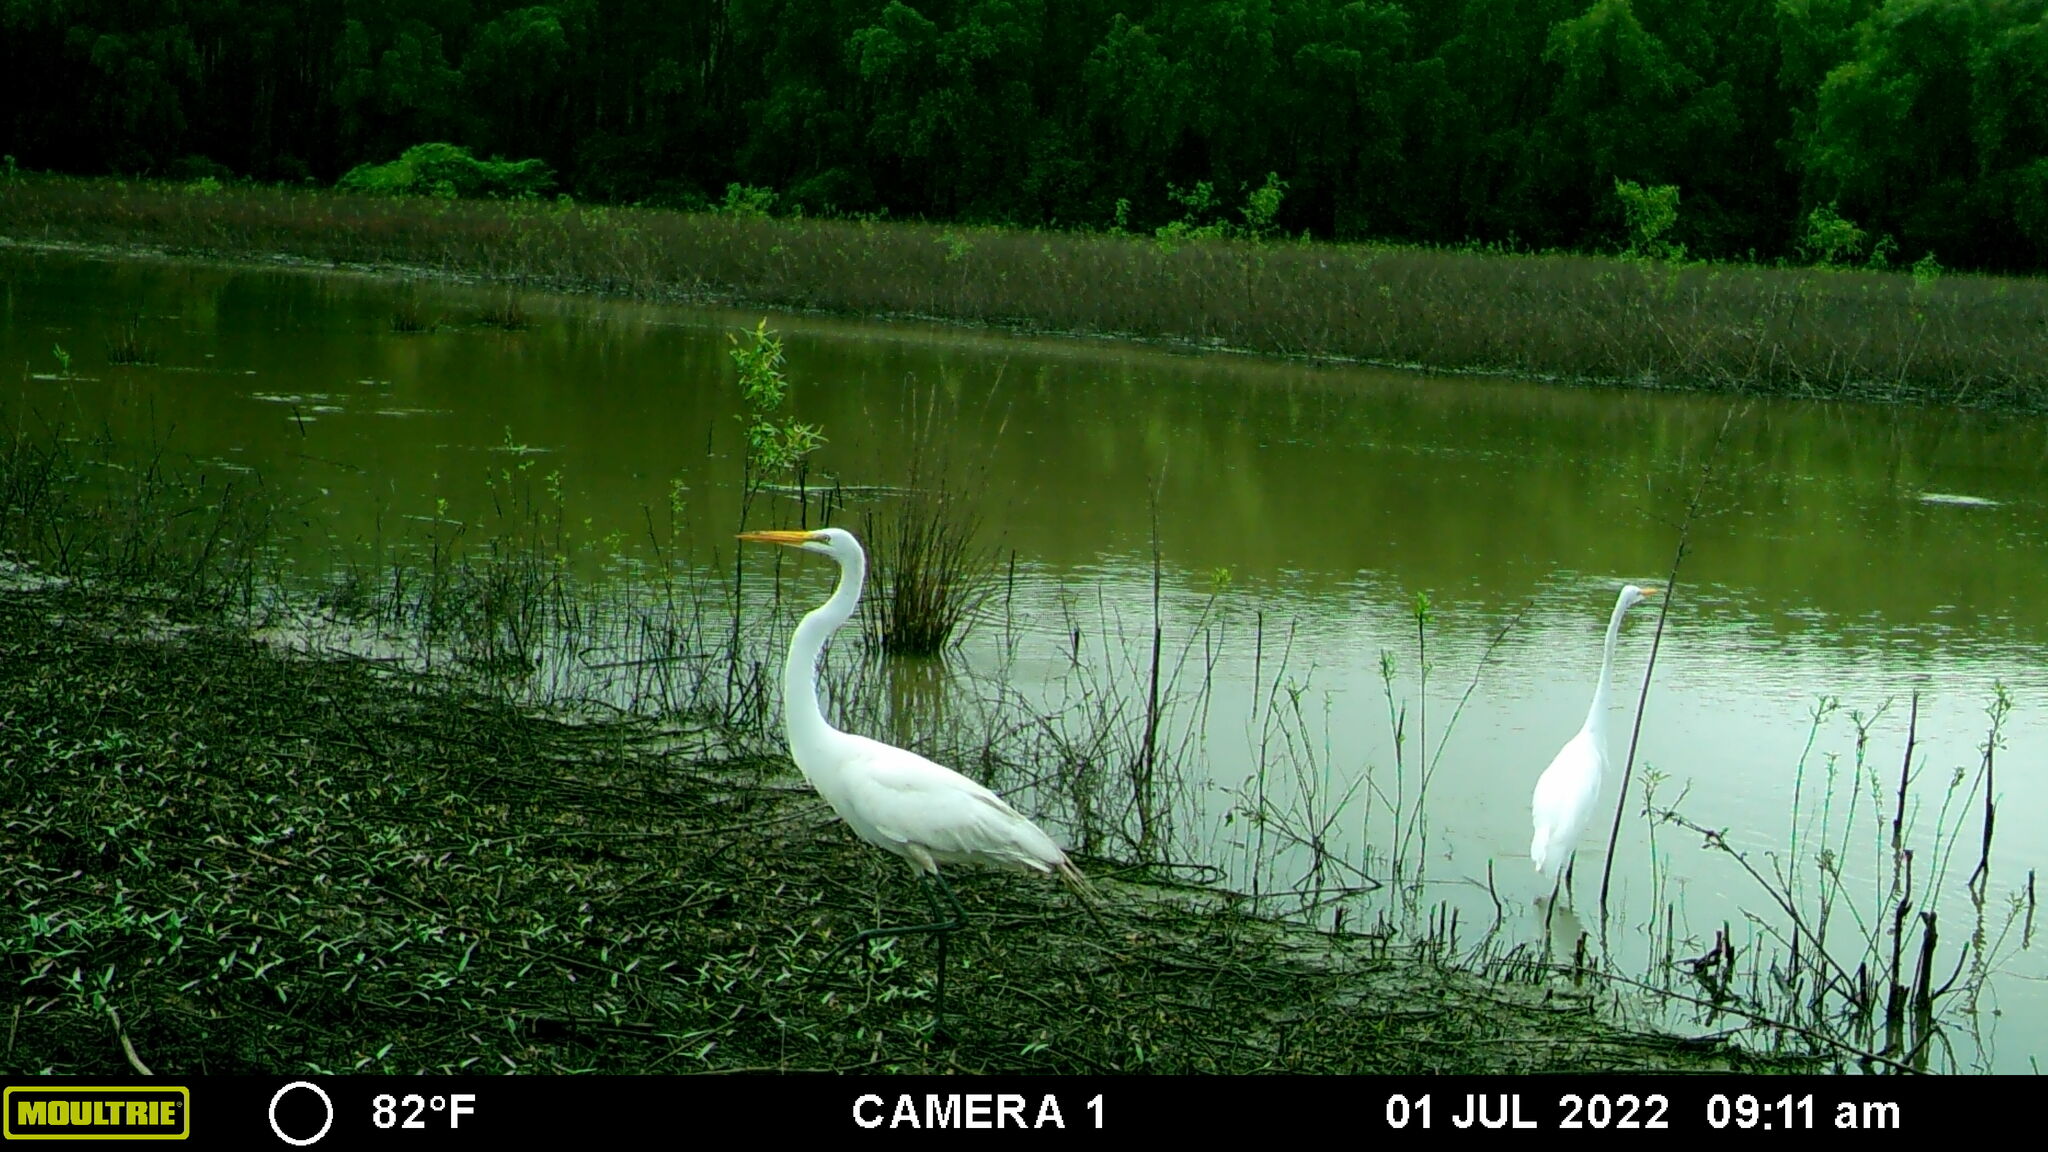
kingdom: Animalia
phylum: Chordata
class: Aves
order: Pelecaniformes
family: Ardeidae
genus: Ardea
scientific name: Ardea alba
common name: Great egret
